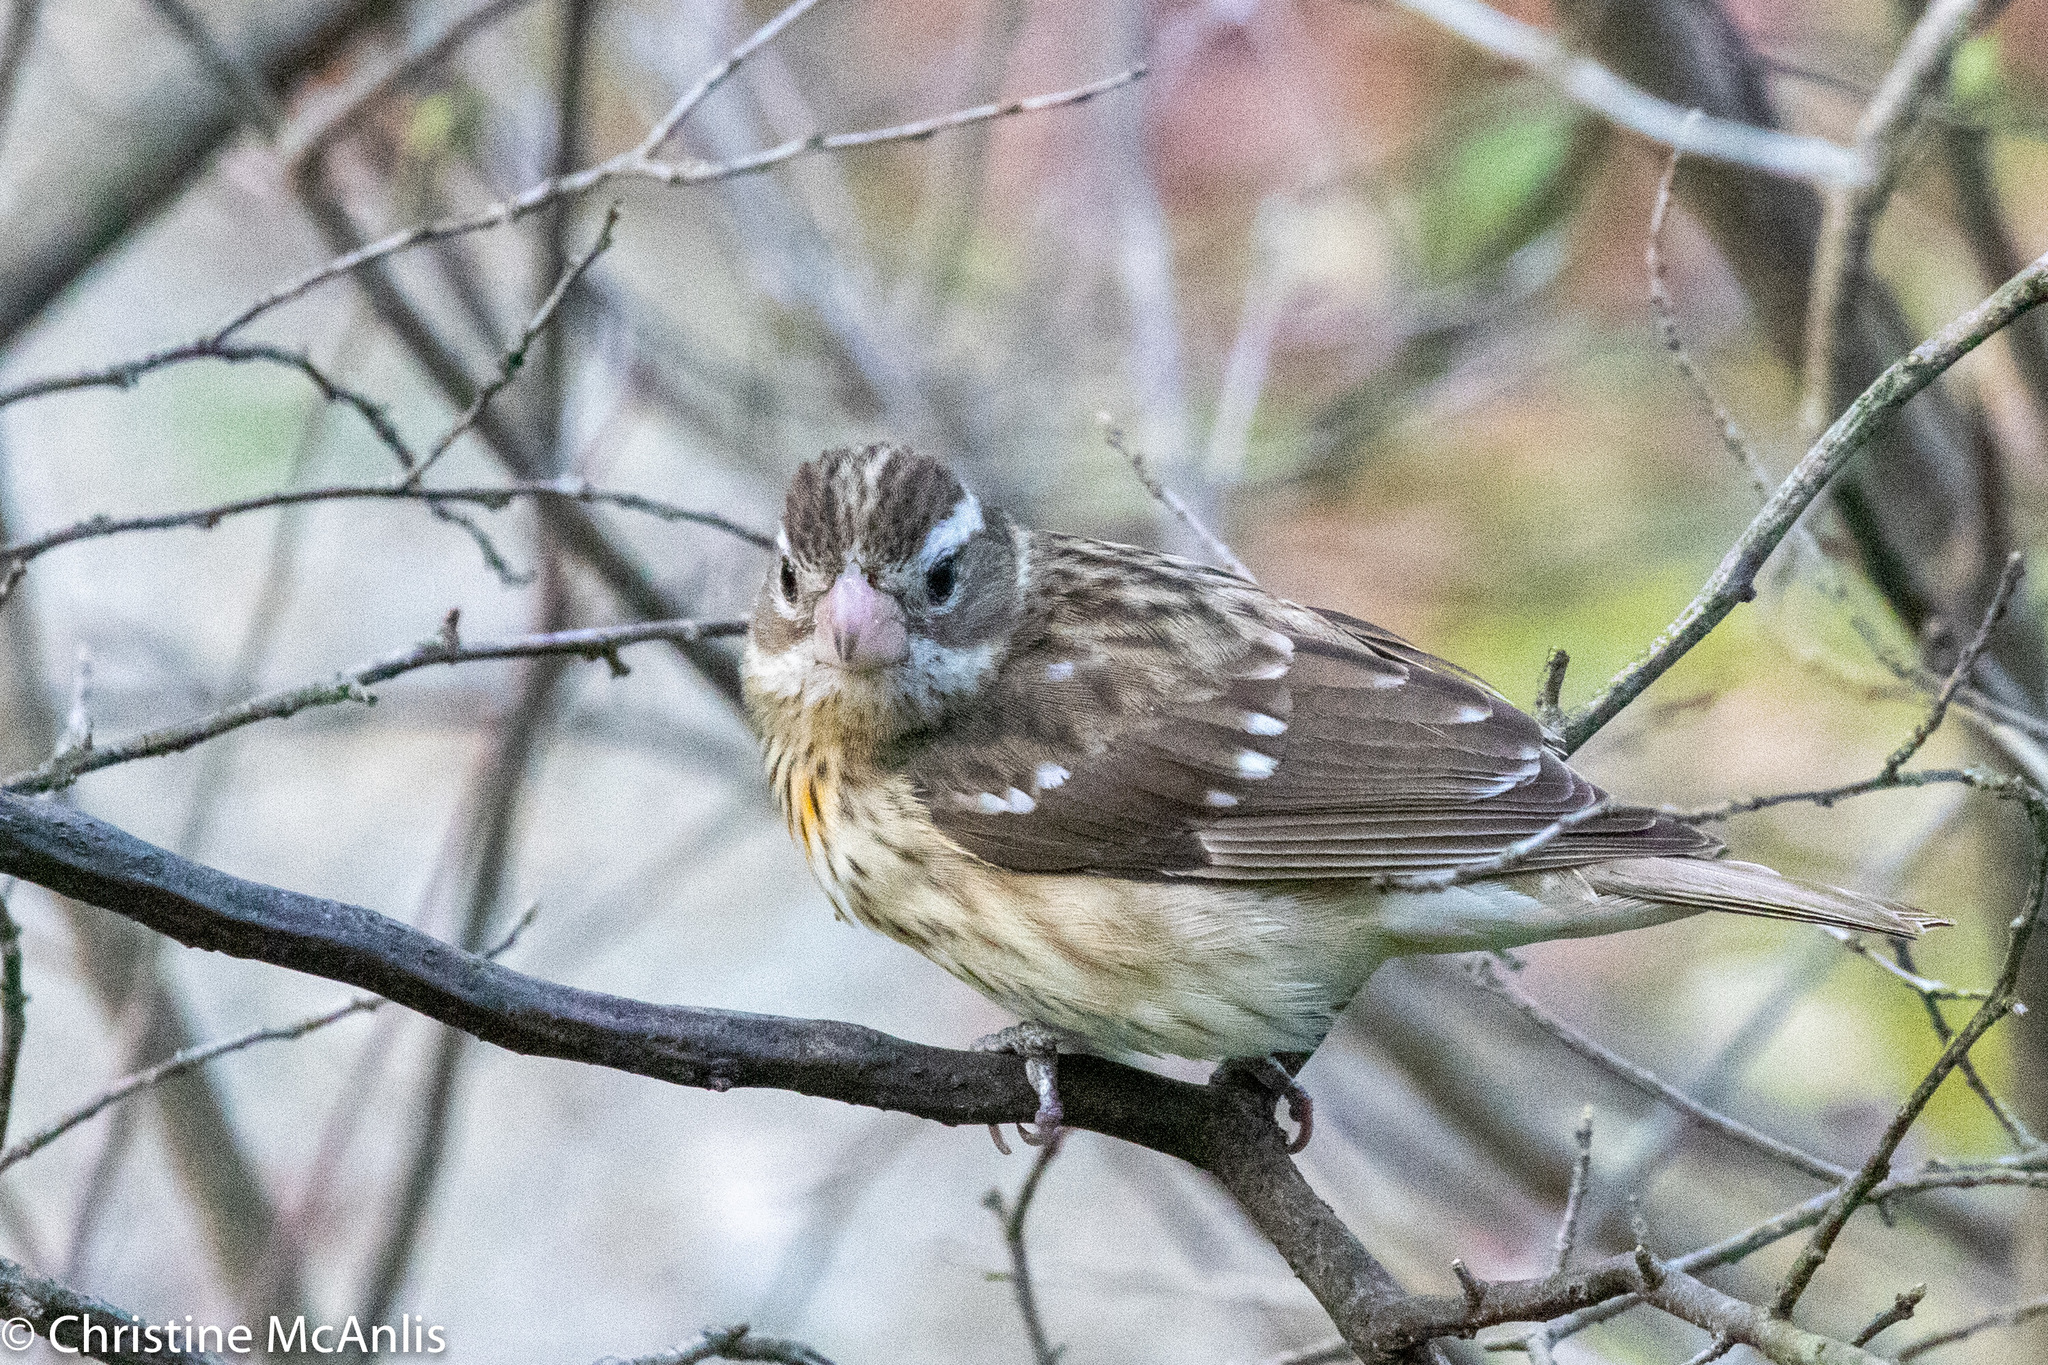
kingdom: Animalia
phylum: Chordata
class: Aves
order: Passeriformes
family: Cardinalidae
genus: Pheucticus
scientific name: Pheucticus ludovicianus
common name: Rose-breasted grosbeak
